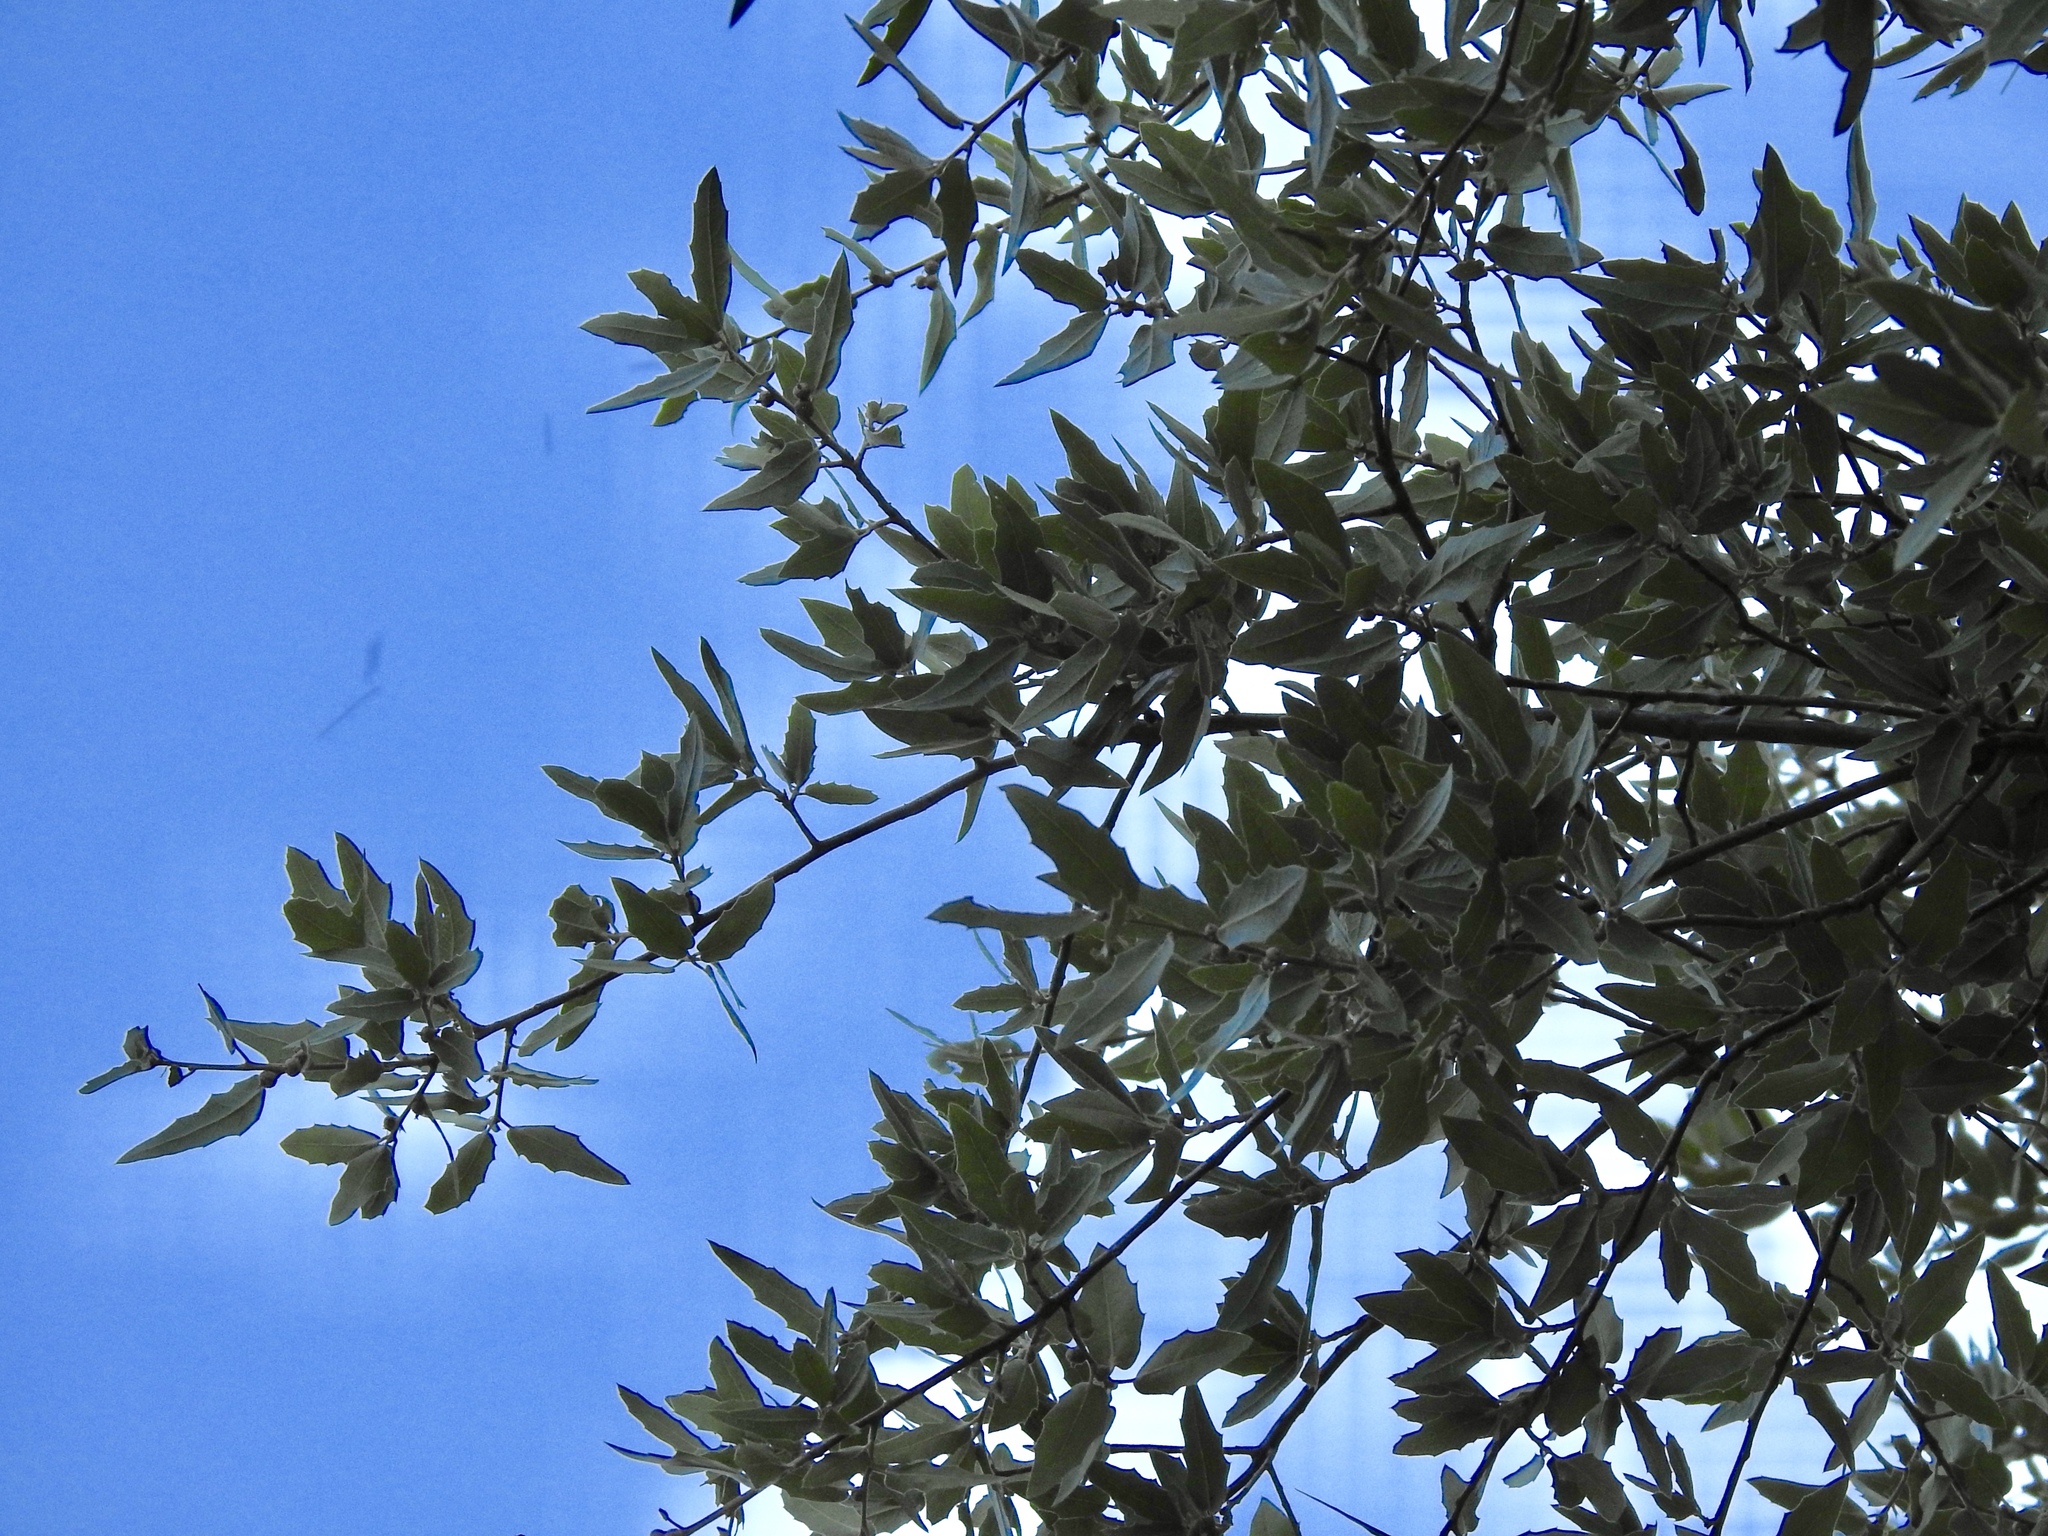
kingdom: Plantae
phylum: Tracheophyta
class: Magnoliopsida
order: Fagales
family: Fagaceae
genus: Quercus
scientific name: Quercus emoryi
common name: Emory oak
